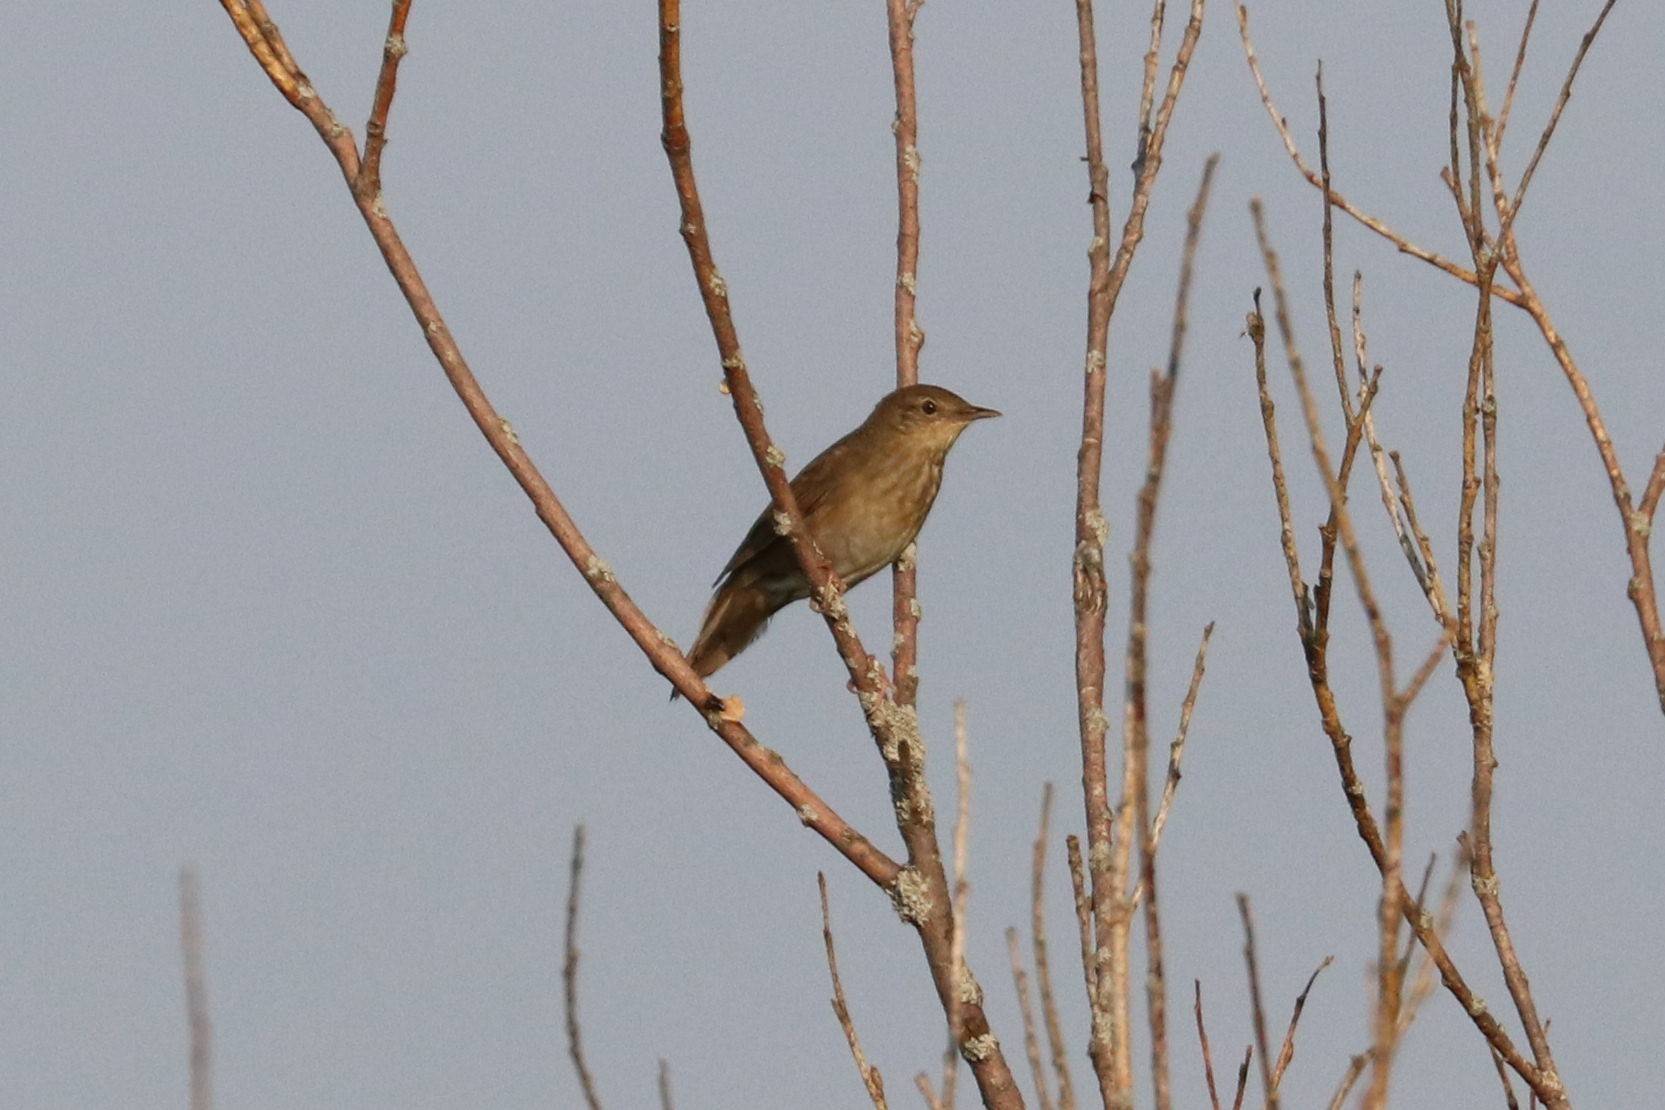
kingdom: Animalia
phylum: Chordata
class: Aves
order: Passeriformes
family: Locustellidae
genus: Locustella
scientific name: Locustella fluviatilis
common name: River warbler
